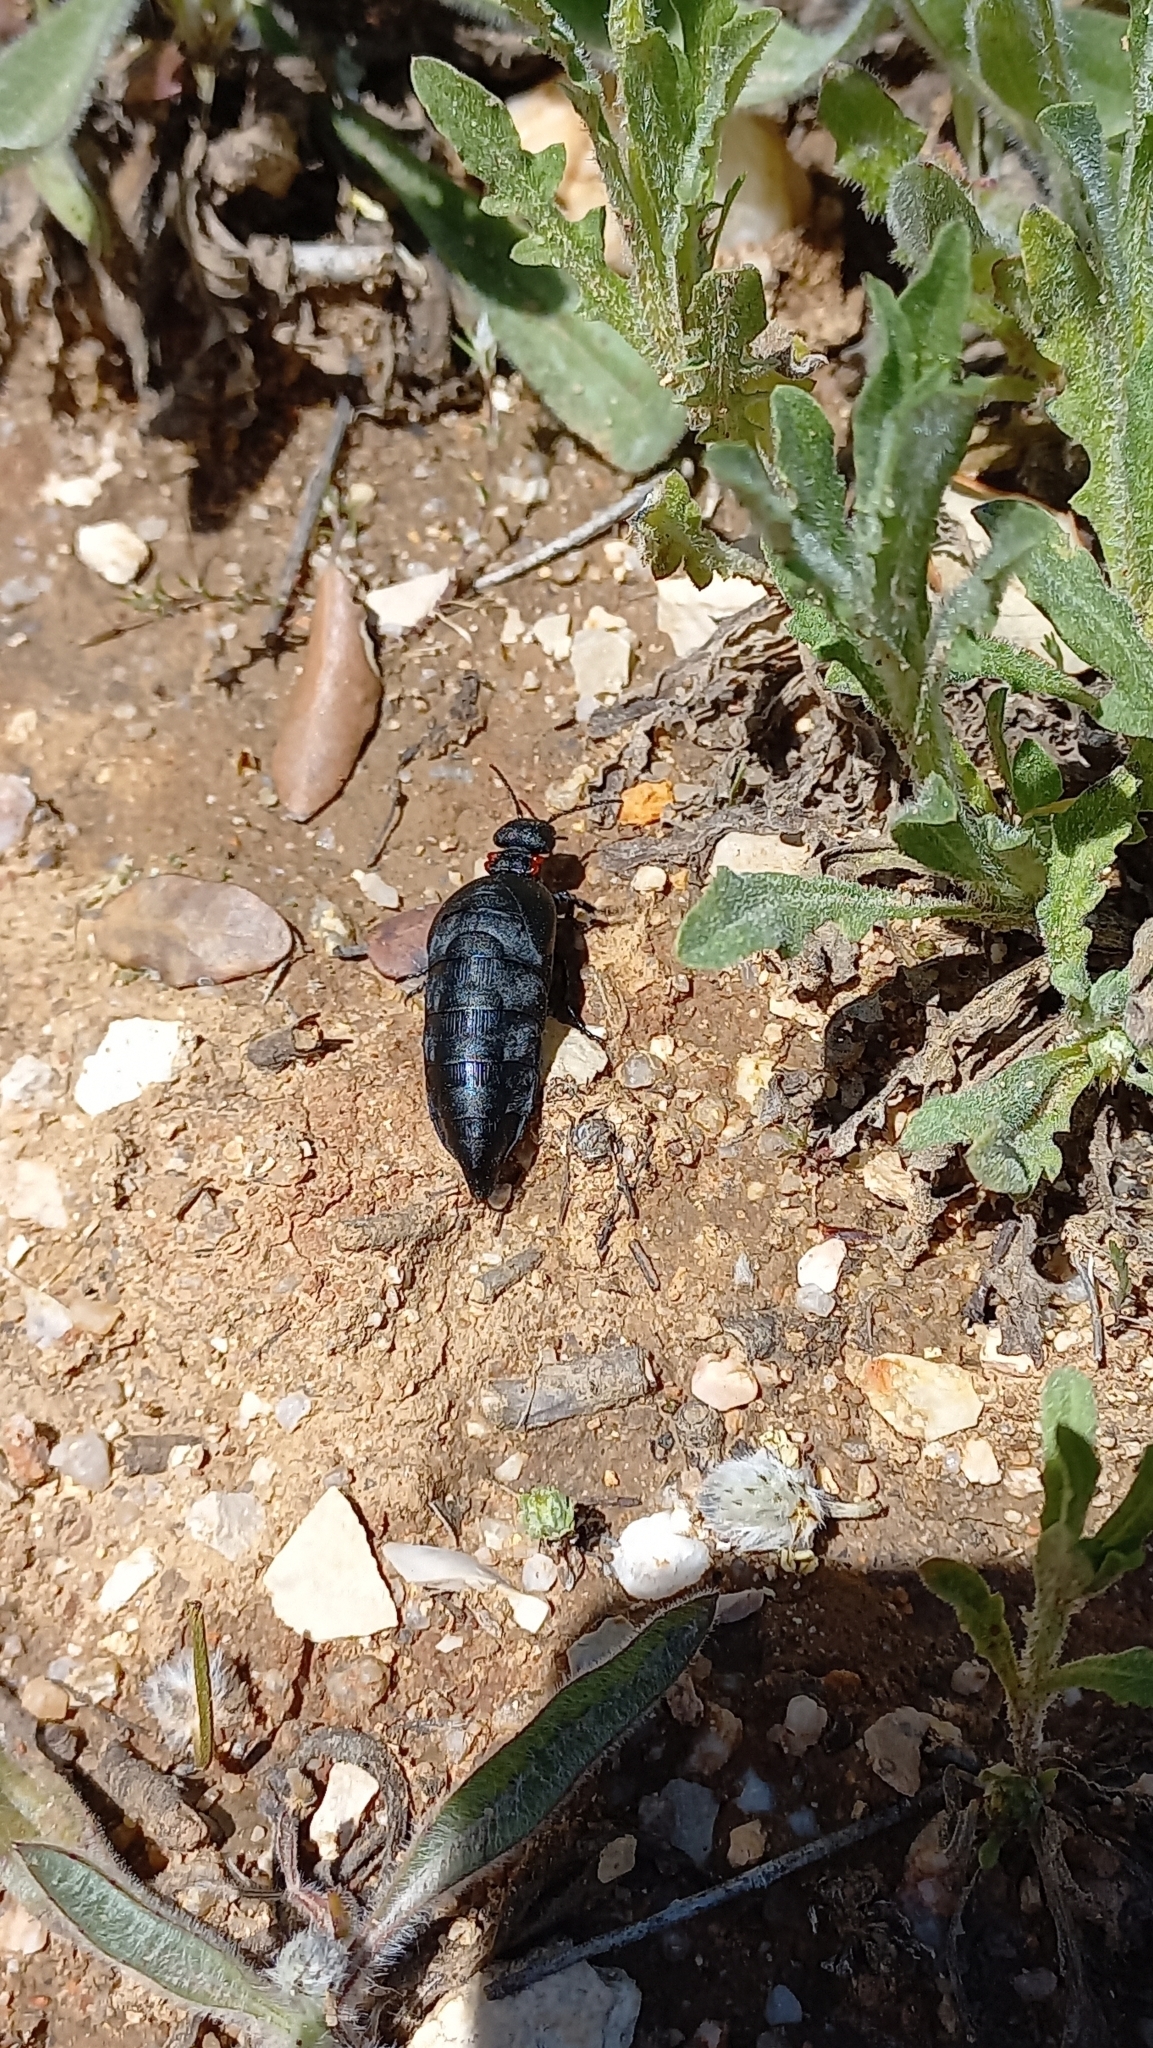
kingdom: Animalia
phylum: Arthropoda
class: Insecta
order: Coleoptera
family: Meloidae
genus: Physomeloe
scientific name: Physomeloe corallifer
